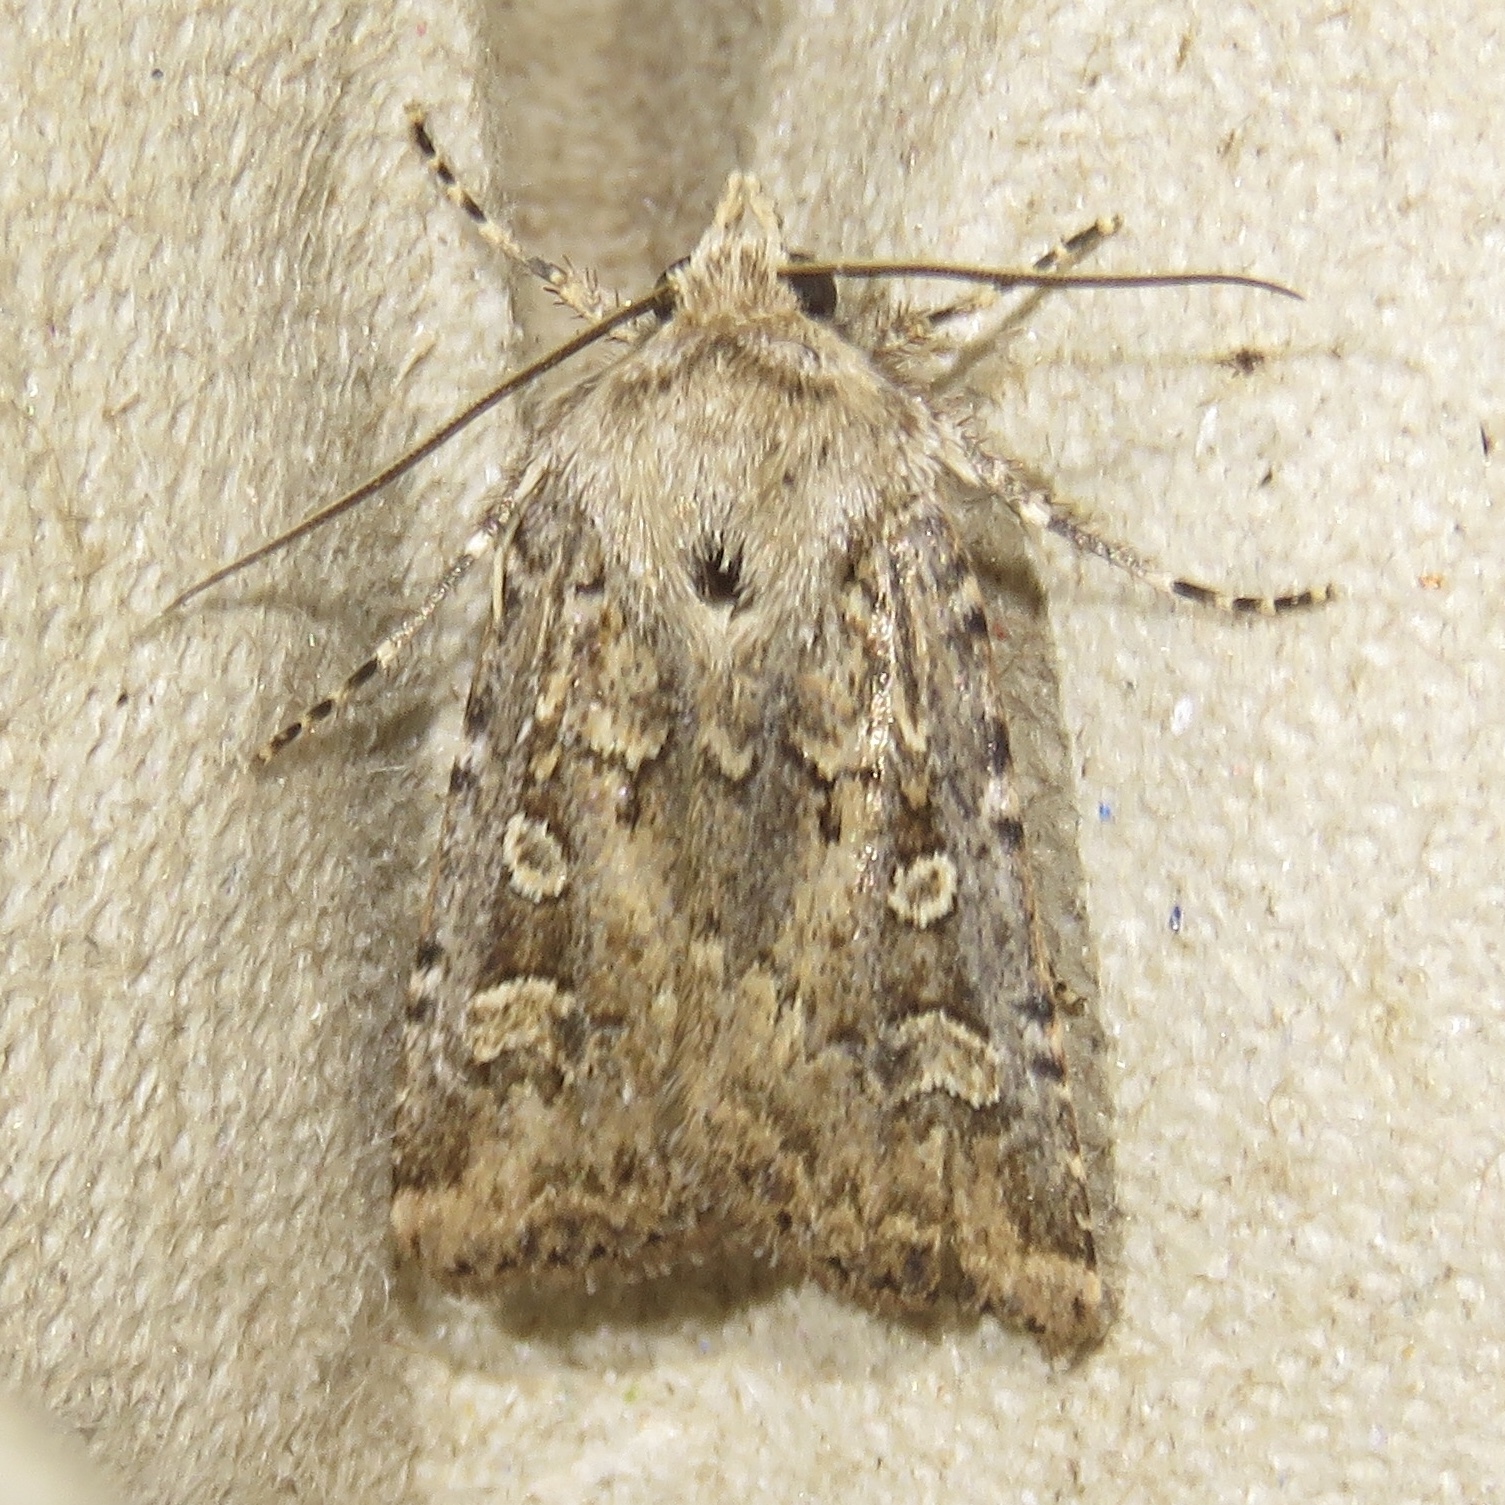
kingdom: Animalia
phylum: Arthropoda
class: Insecta
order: Lepidoptera
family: Noctuidae
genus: Euxoa
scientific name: Euxoa detersa
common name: Rubbed dart
